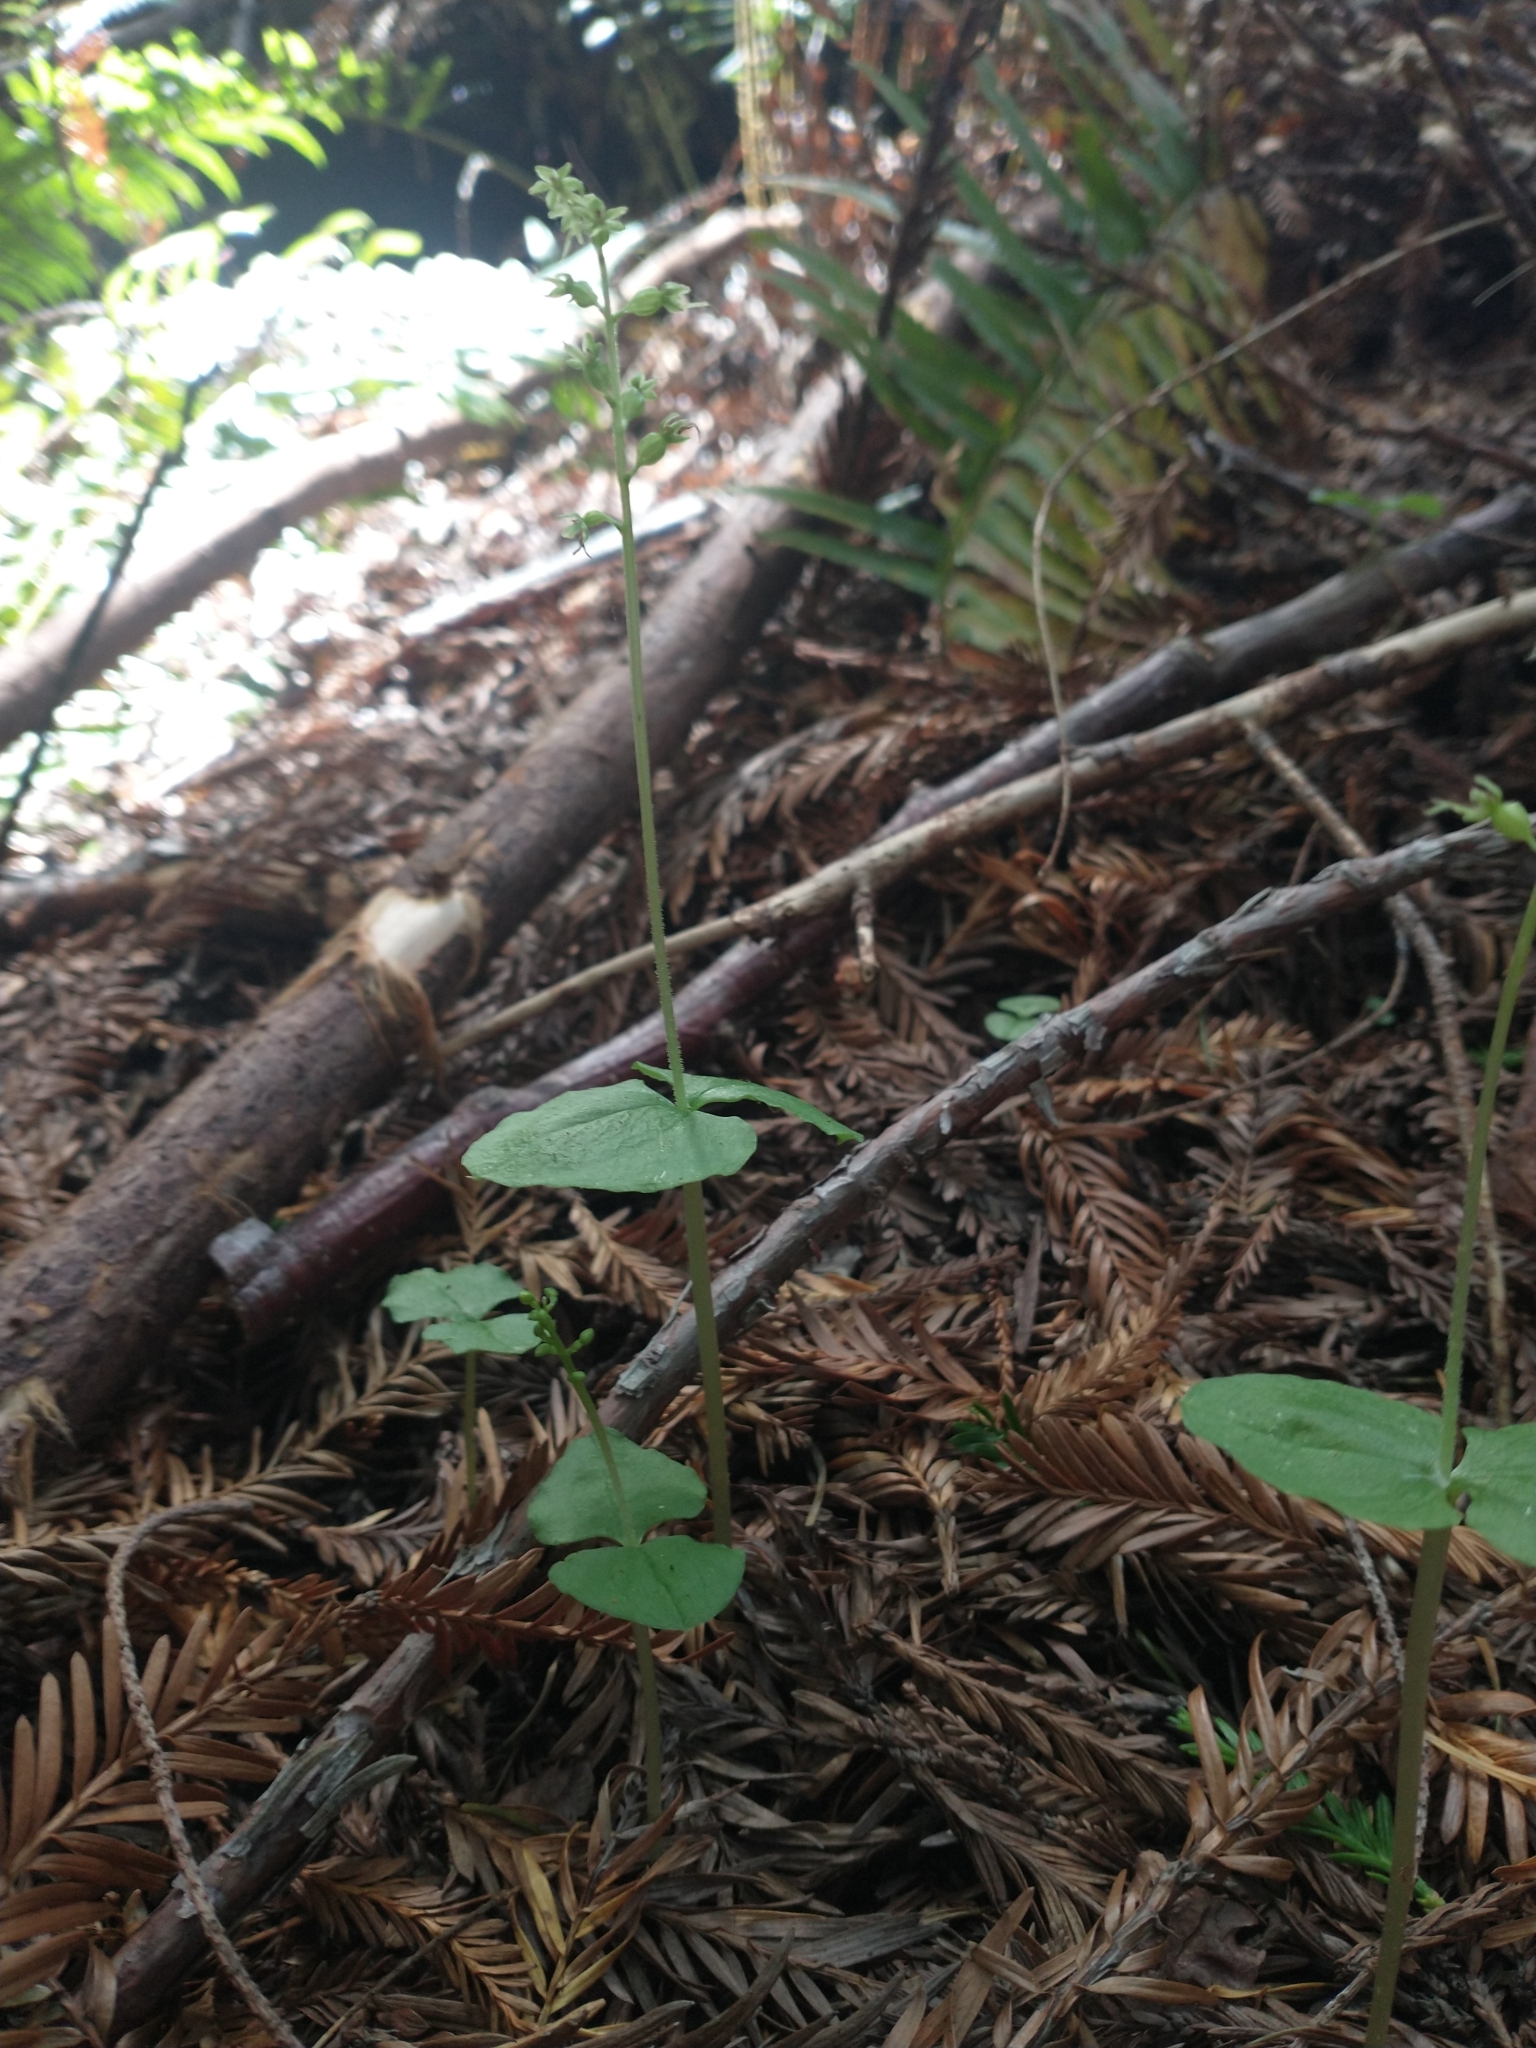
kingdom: Plantae
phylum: Tracheophyta
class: Liliopsida
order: Asparagales
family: Orchidaceae
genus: Neottia
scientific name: Neottia cordata
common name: Lesser twayblade
